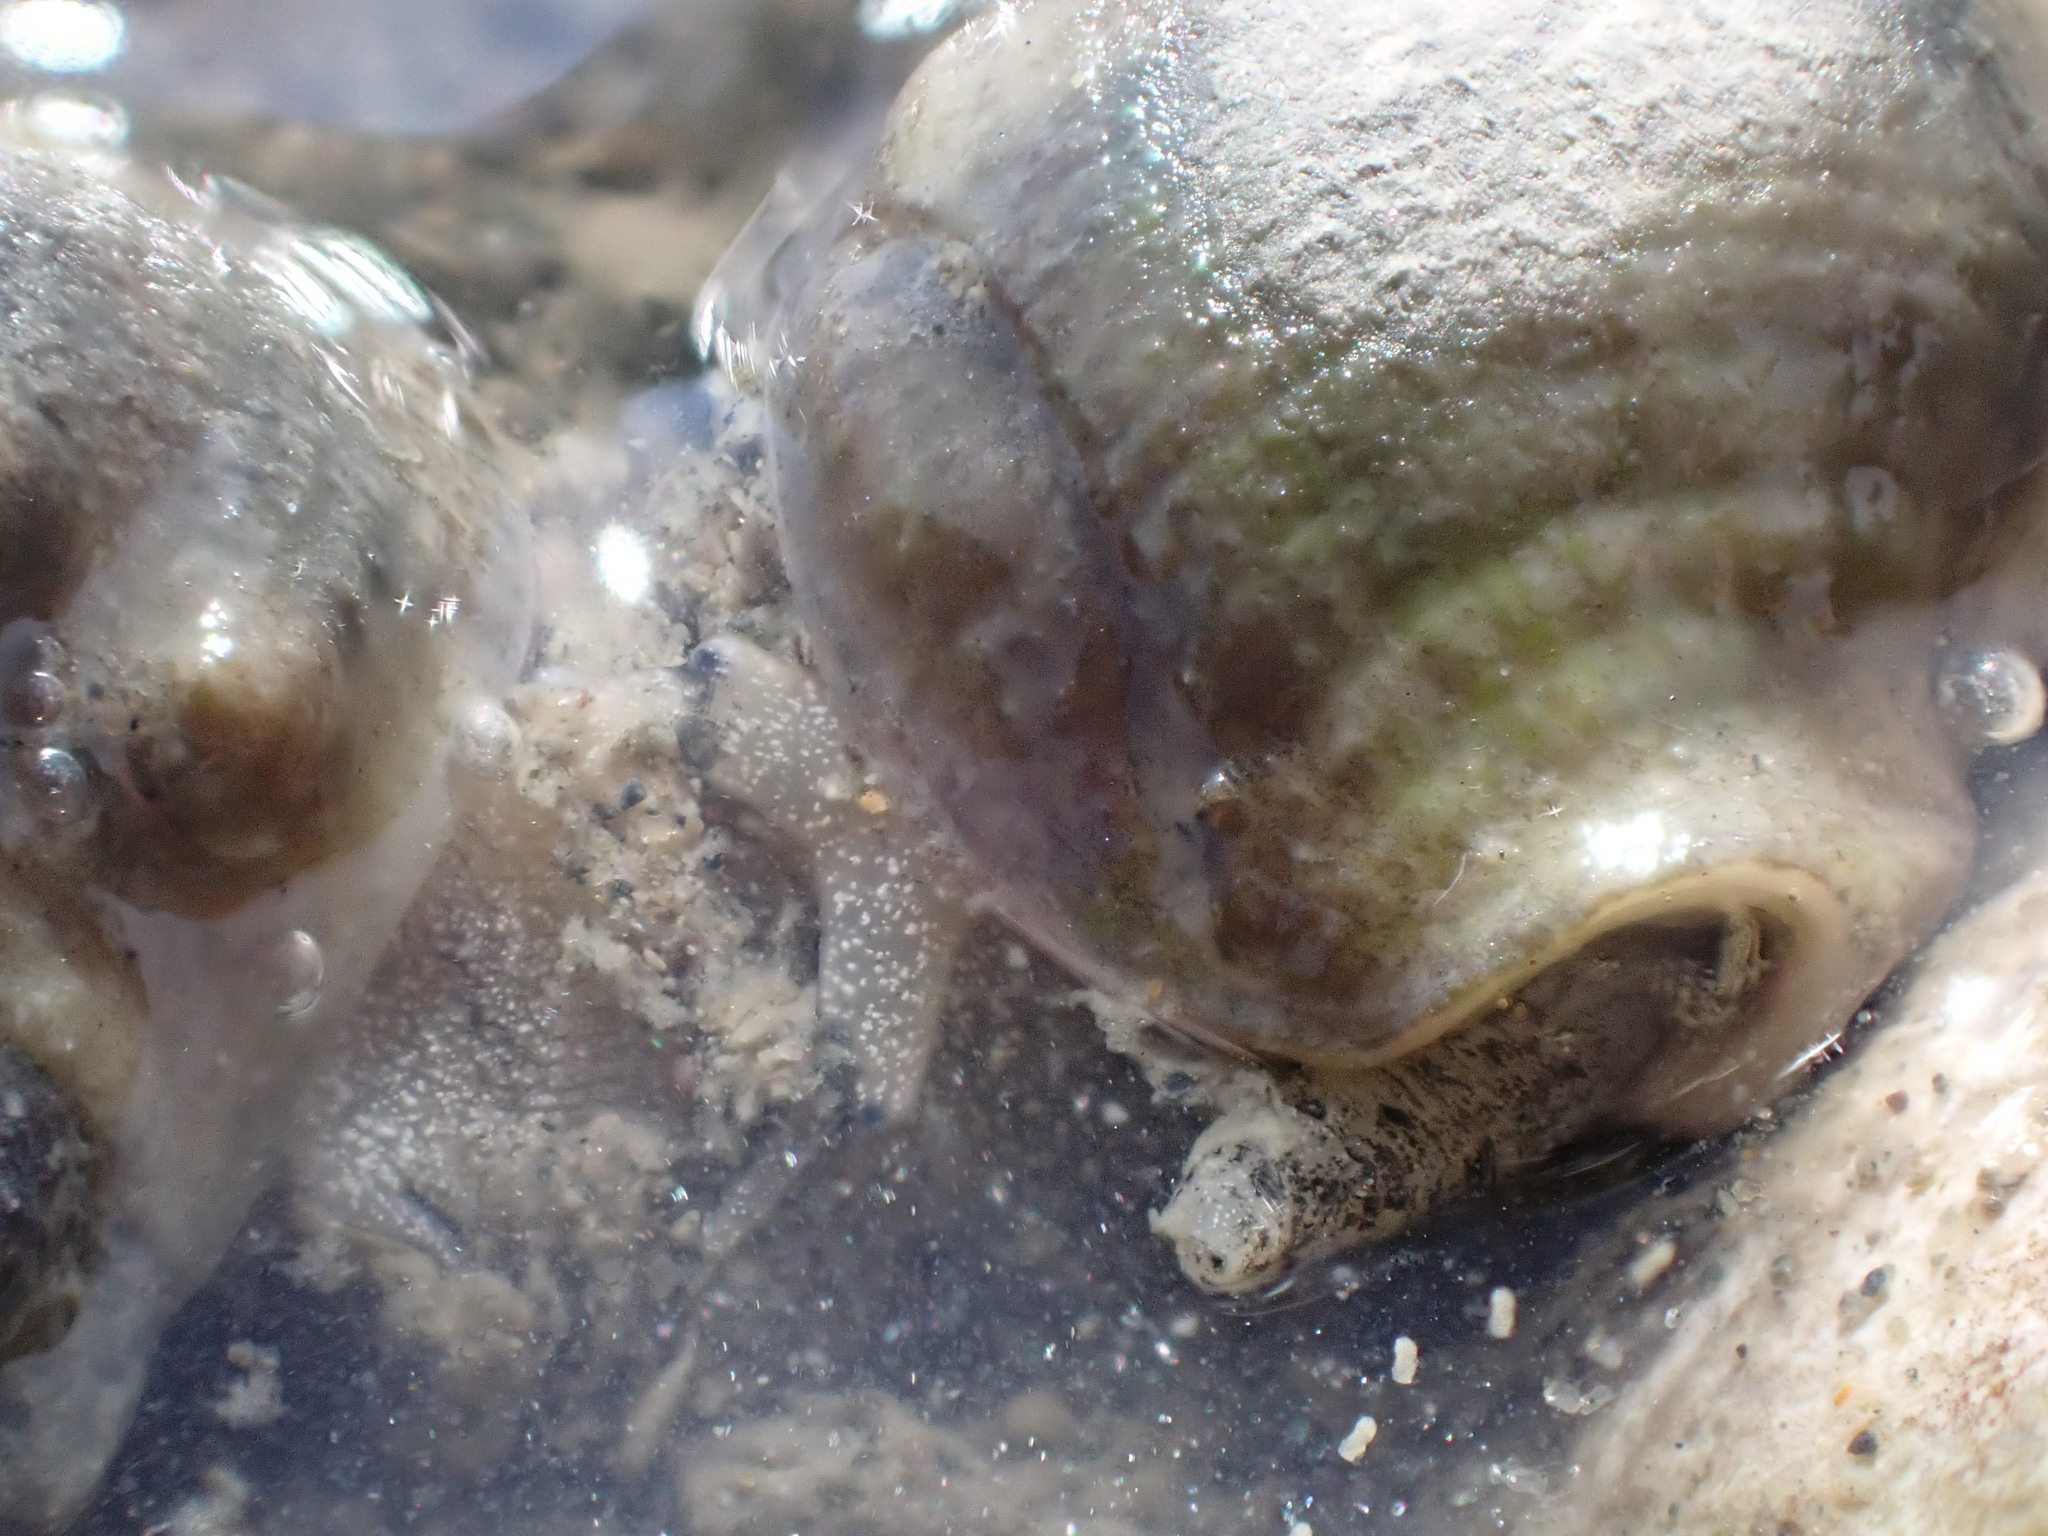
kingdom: Animalia
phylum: Mollusca
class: Gastropoda
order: Neogastropoda
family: Cominellidae
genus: Cominella
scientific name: Cominella glandiformis
